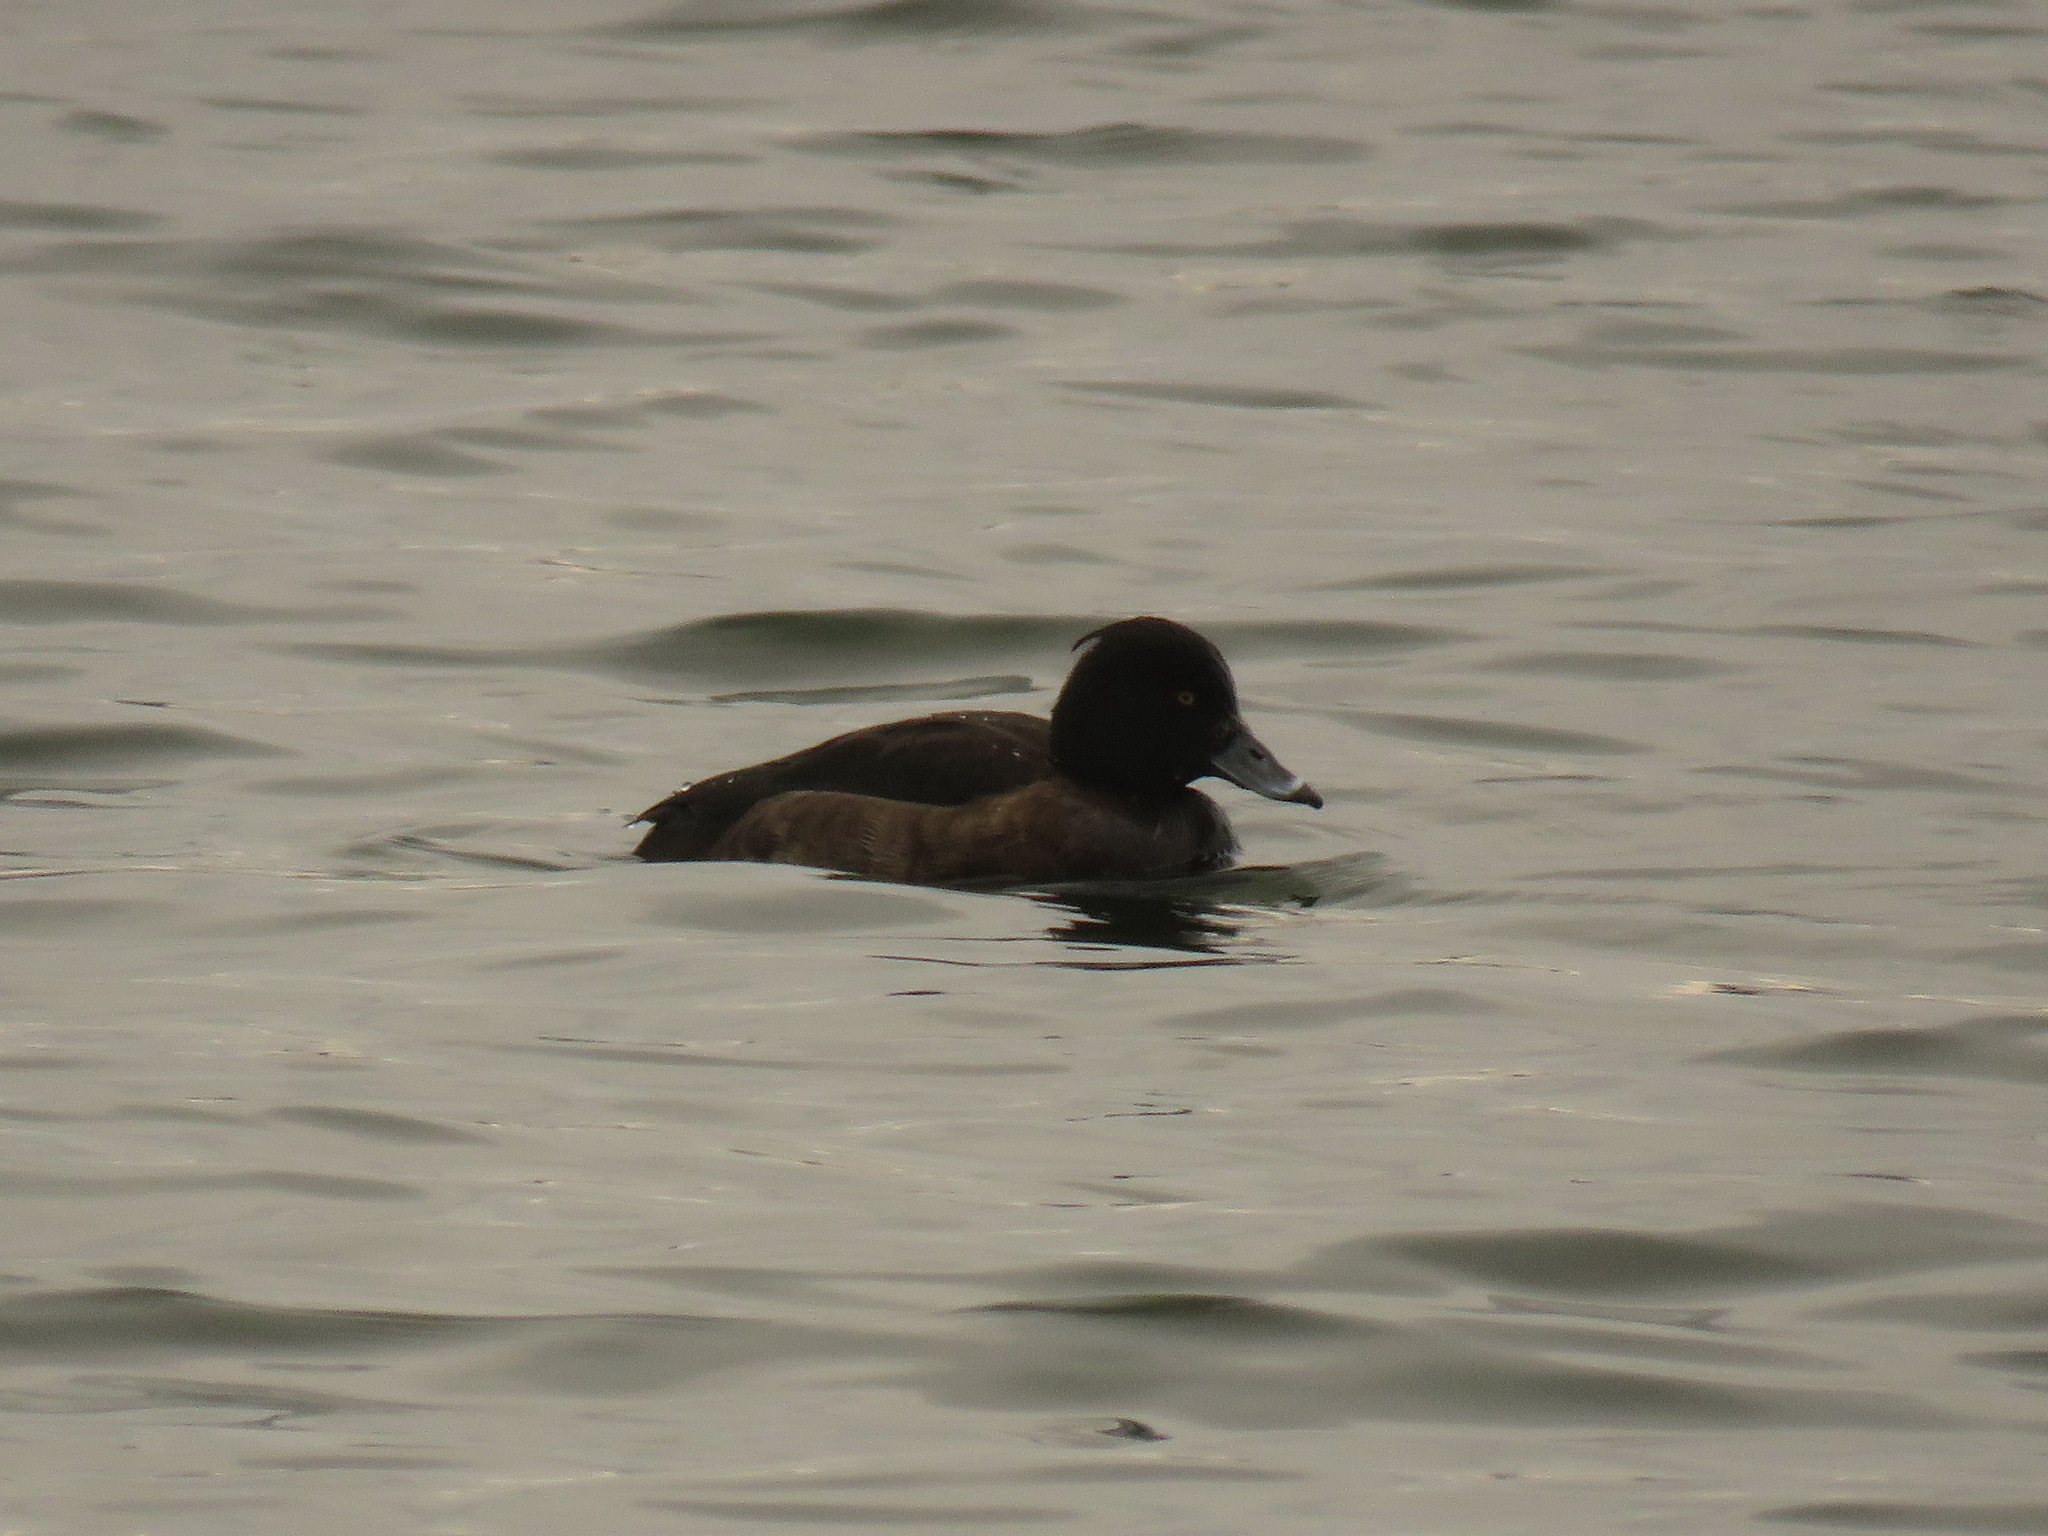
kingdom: Animalia
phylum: Chordata
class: Aves
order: Anseriformes
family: Anatidae
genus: Aythya
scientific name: Aythya fuligula
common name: Tufted duck
